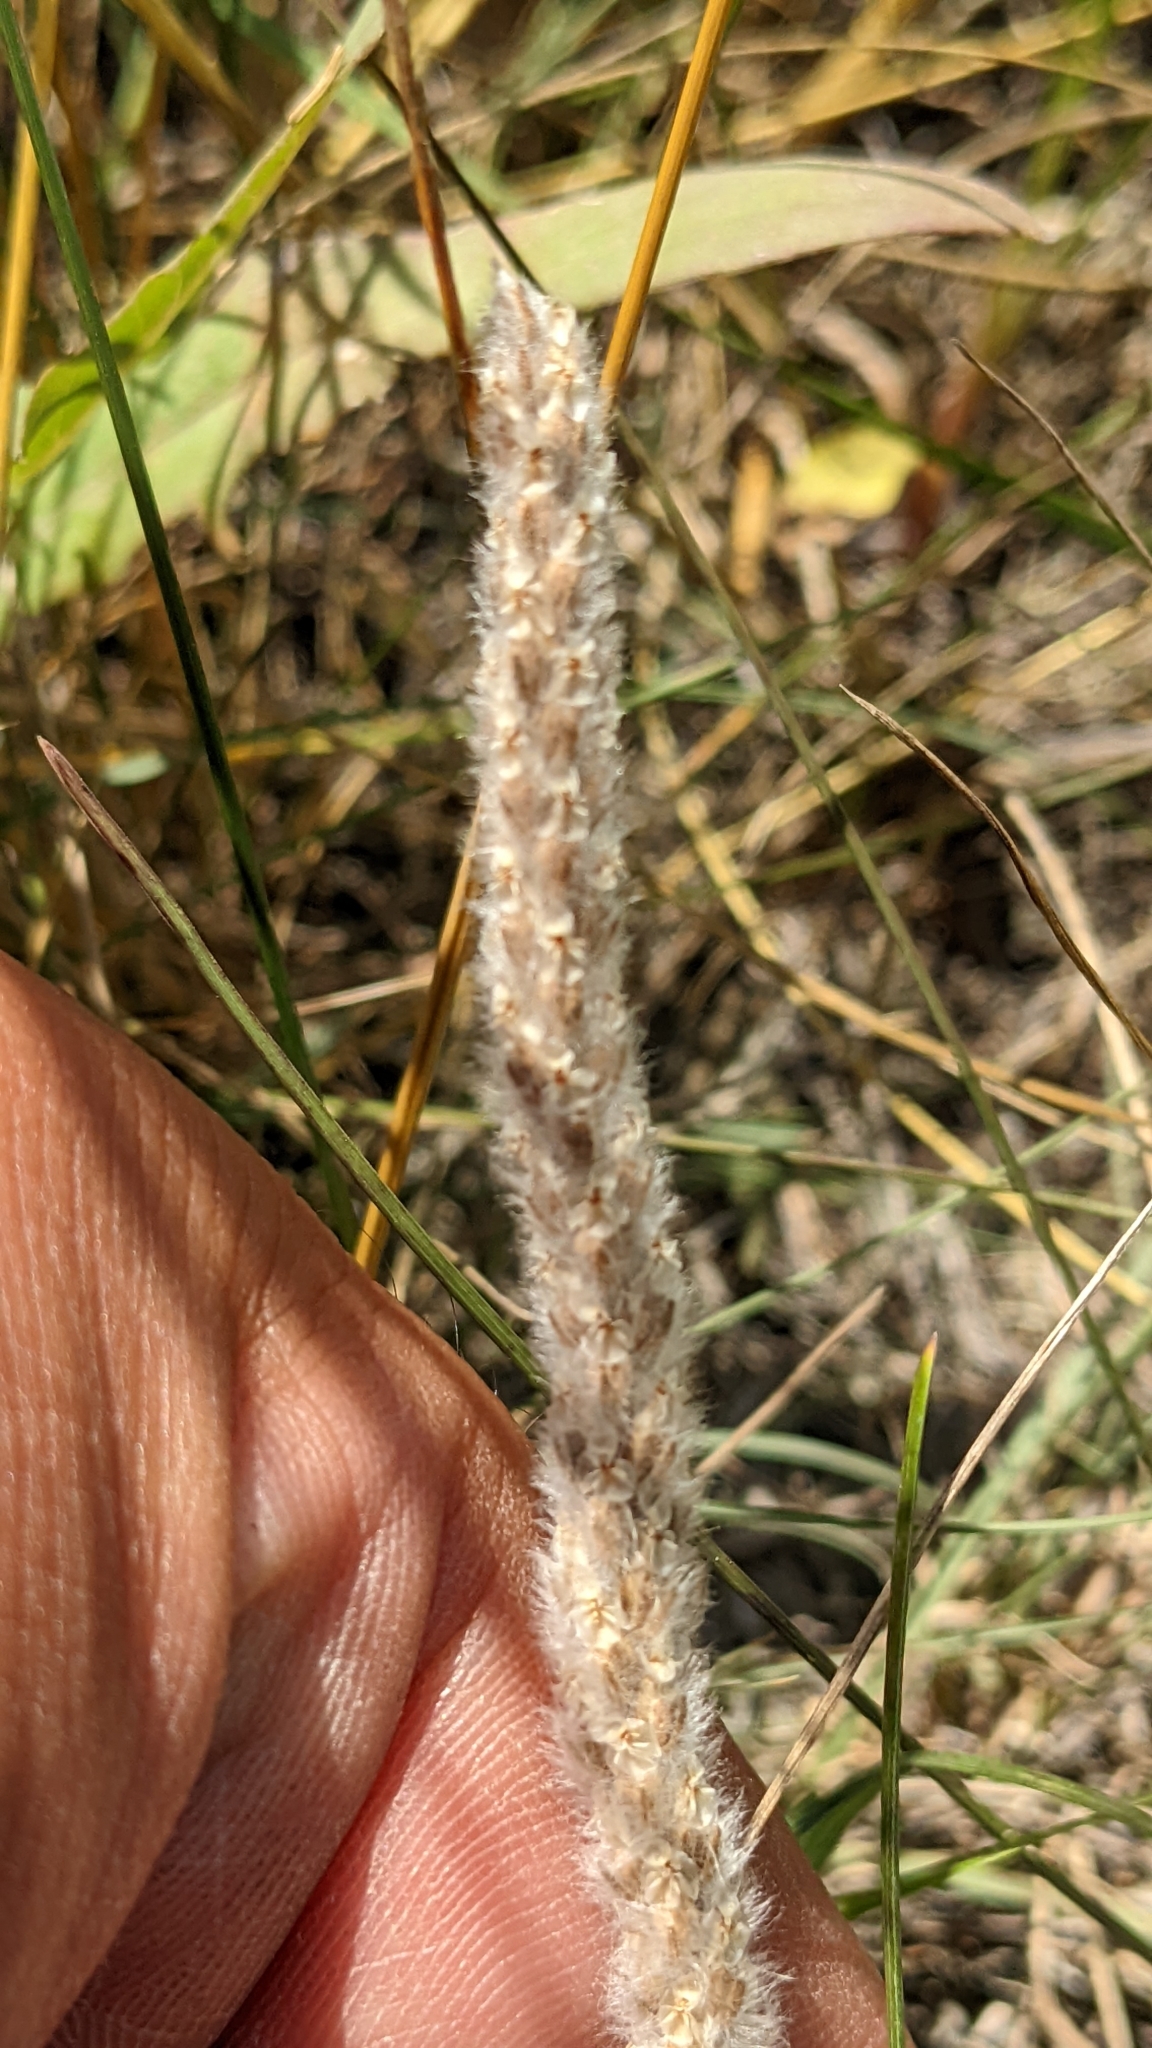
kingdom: Plantae
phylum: Tracheophyta
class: Magnoliopsida
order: Lamiales
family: Plantaginaceae
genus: Plantago
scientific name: Plantago patagonica
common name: Patagonia indian-wheat
